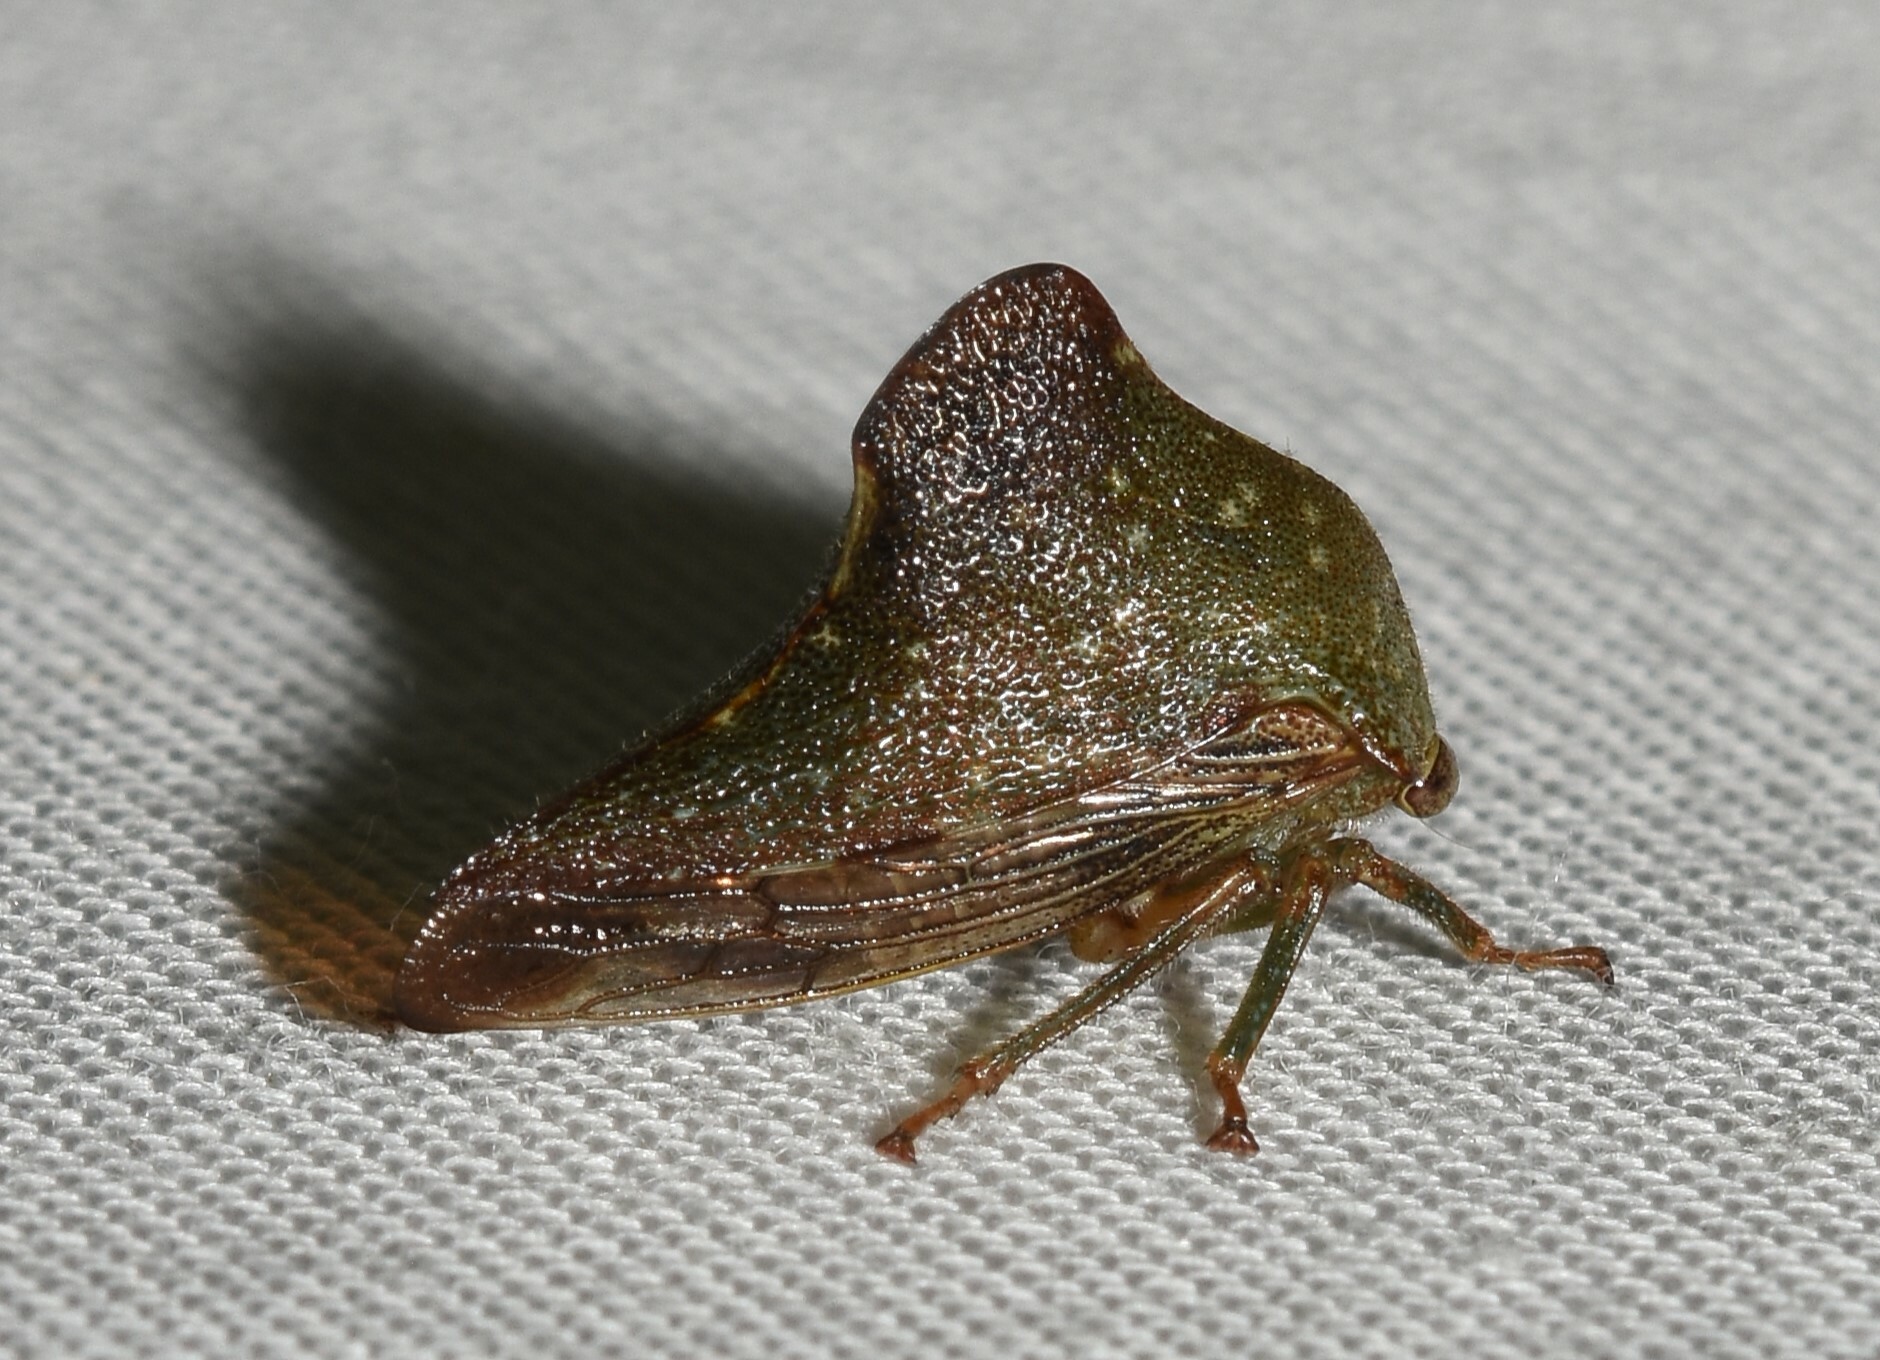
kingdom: Animalia
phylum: Arthropoda
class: Insecta
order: Hemiptera
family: Membracidae
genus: Telamona
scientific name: Telamona monticola
